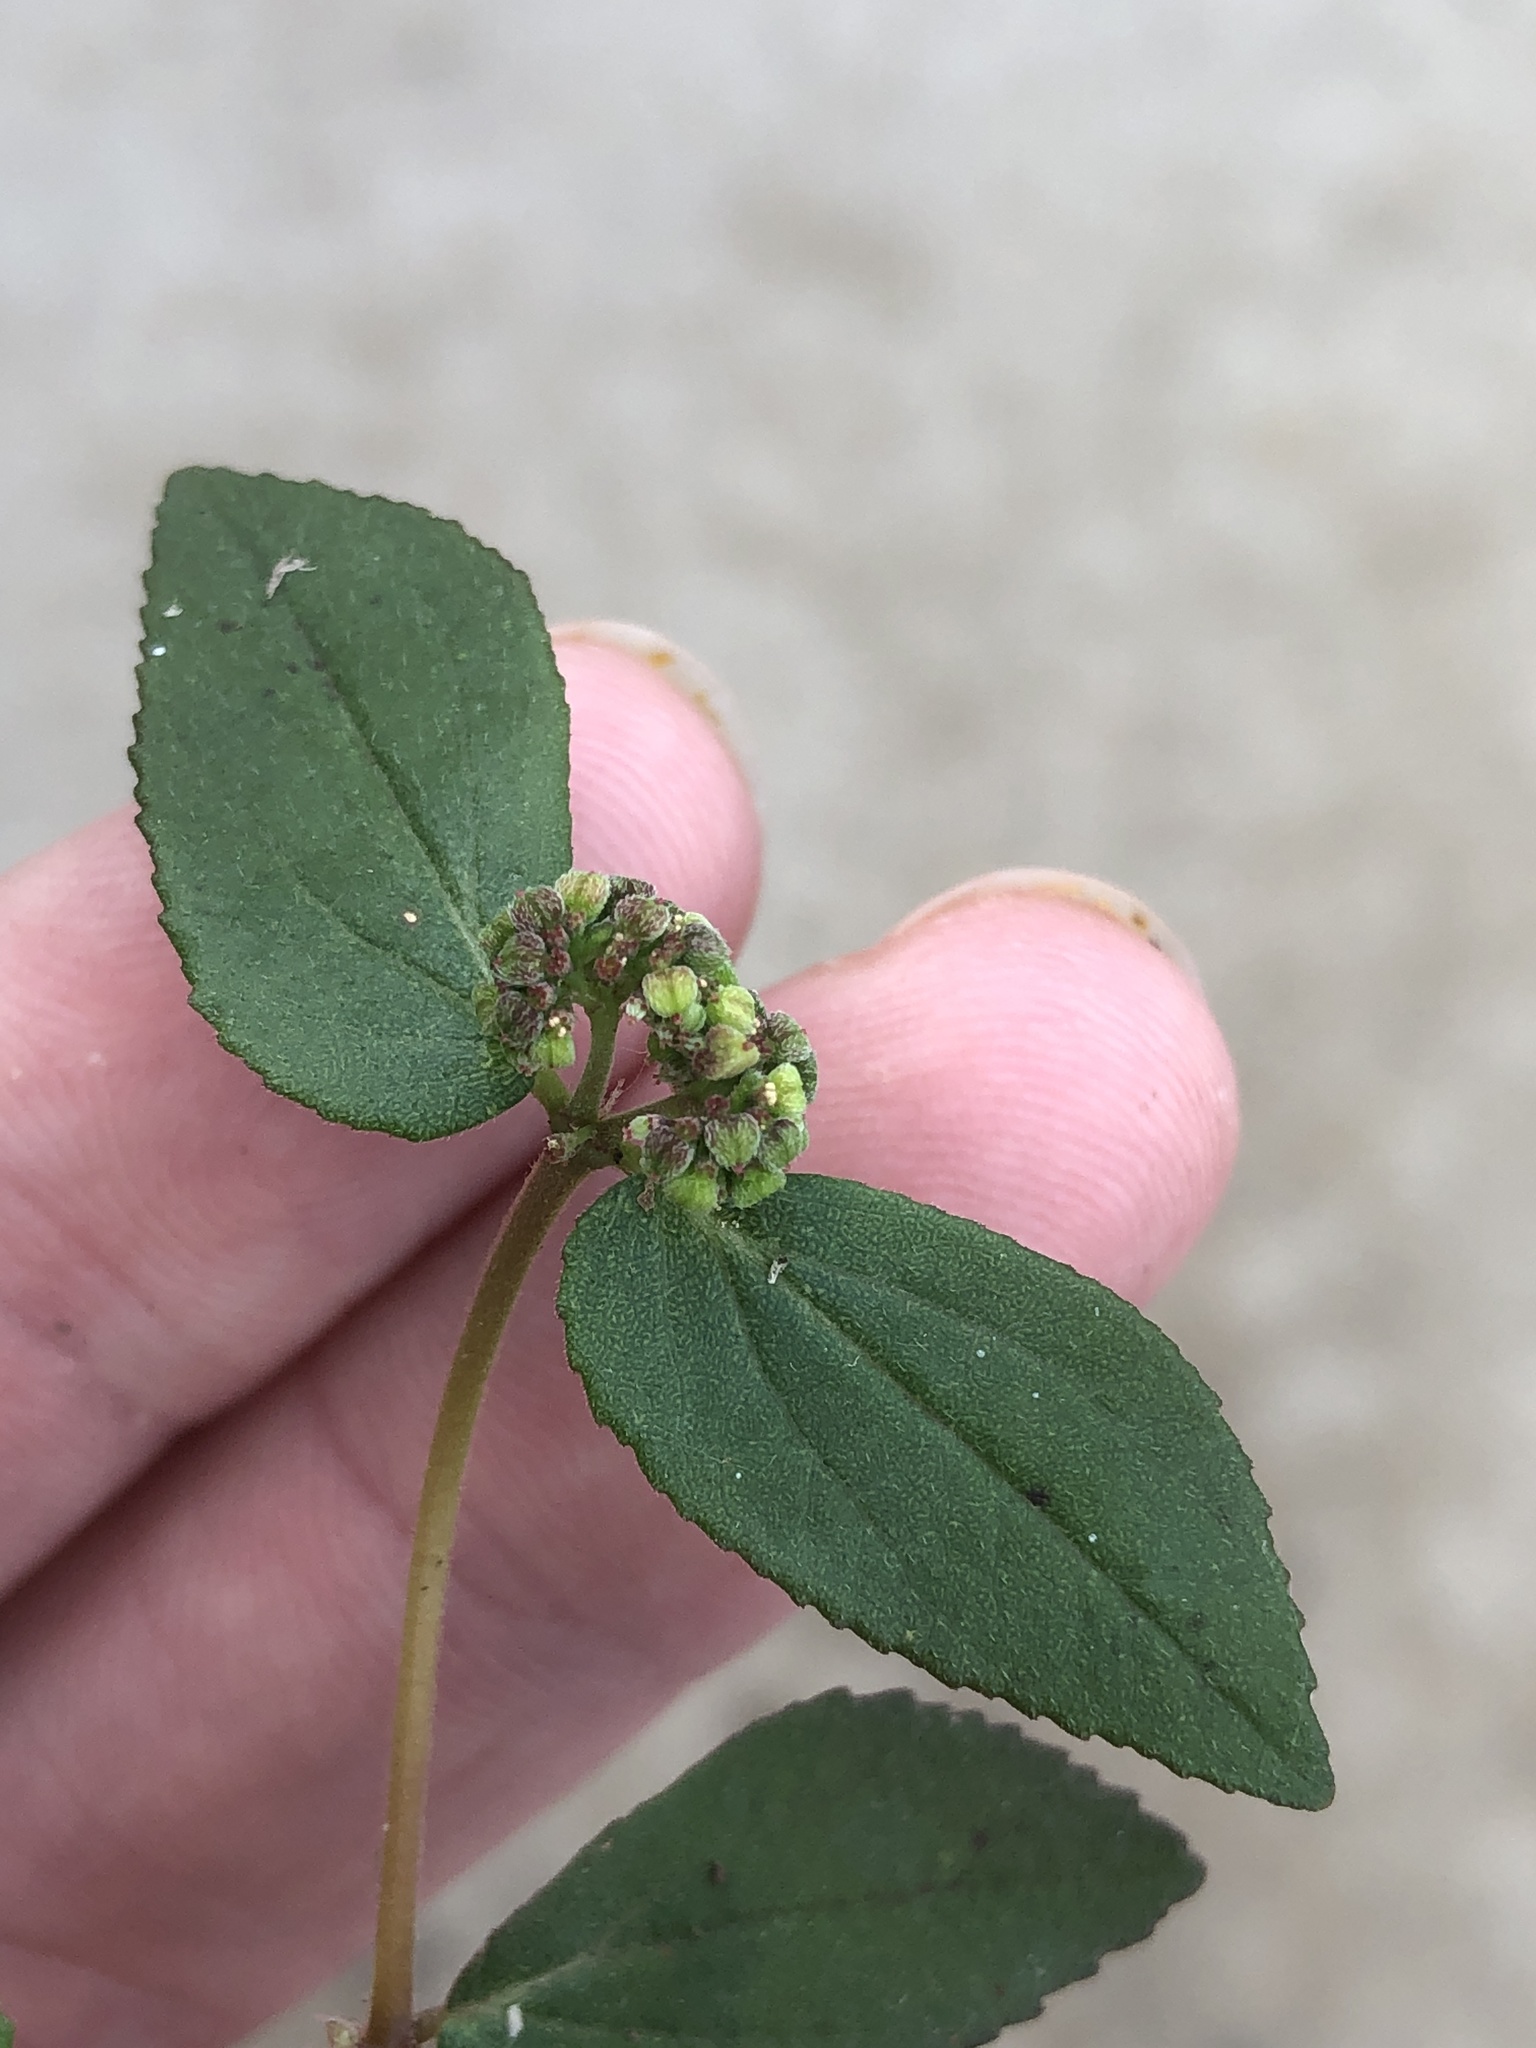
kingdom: Plantae
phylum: Tracheophyta
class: Magnoliopsida
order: Malpighiales
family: Euphorbiaceae
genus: Euphorbia
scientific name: Euphorbia ophthalmica
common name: Florida hammock sandmat
